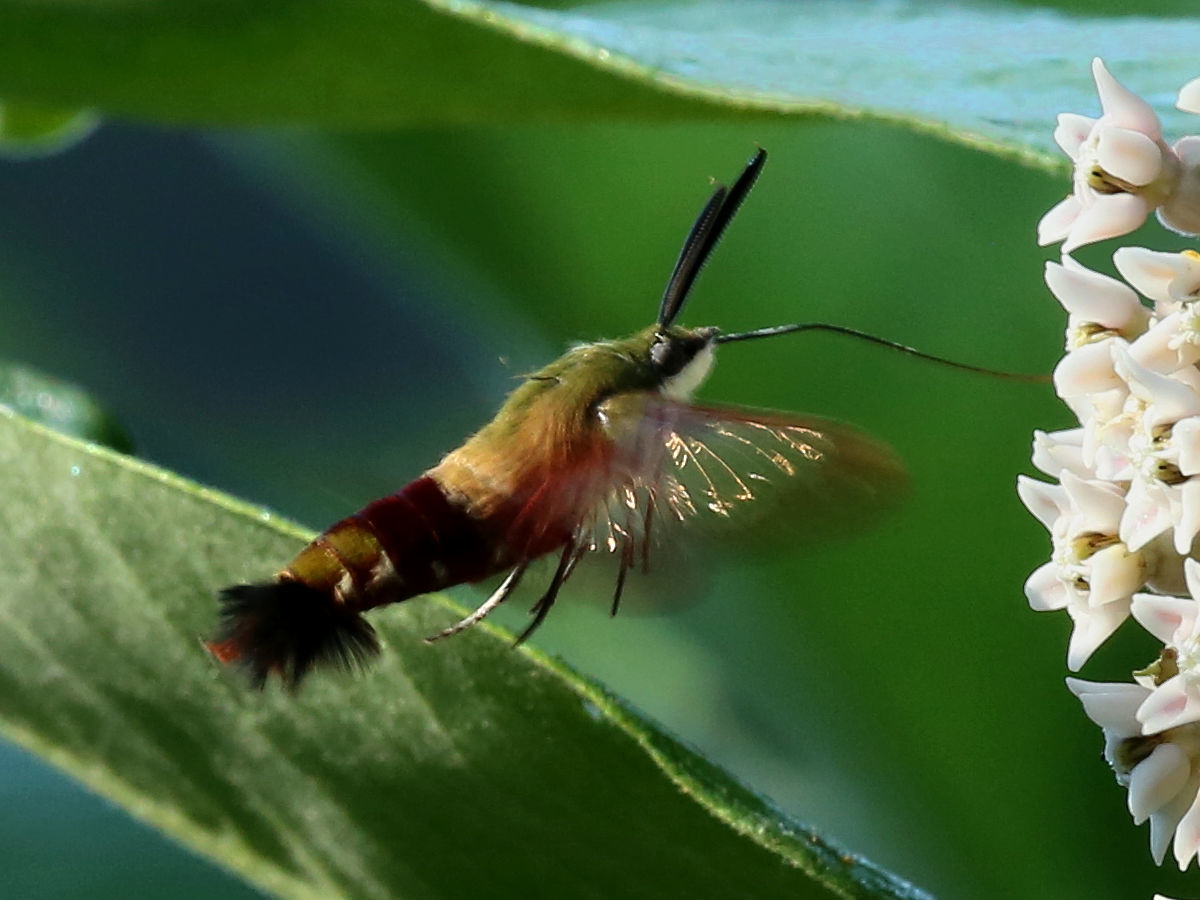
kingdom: Animalia
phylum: Arthropoda
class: Insecta
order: Lepidoptera
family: Sphingidae
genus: Hemaris
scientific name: Hemaris thysbe
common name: Common clear-wing
